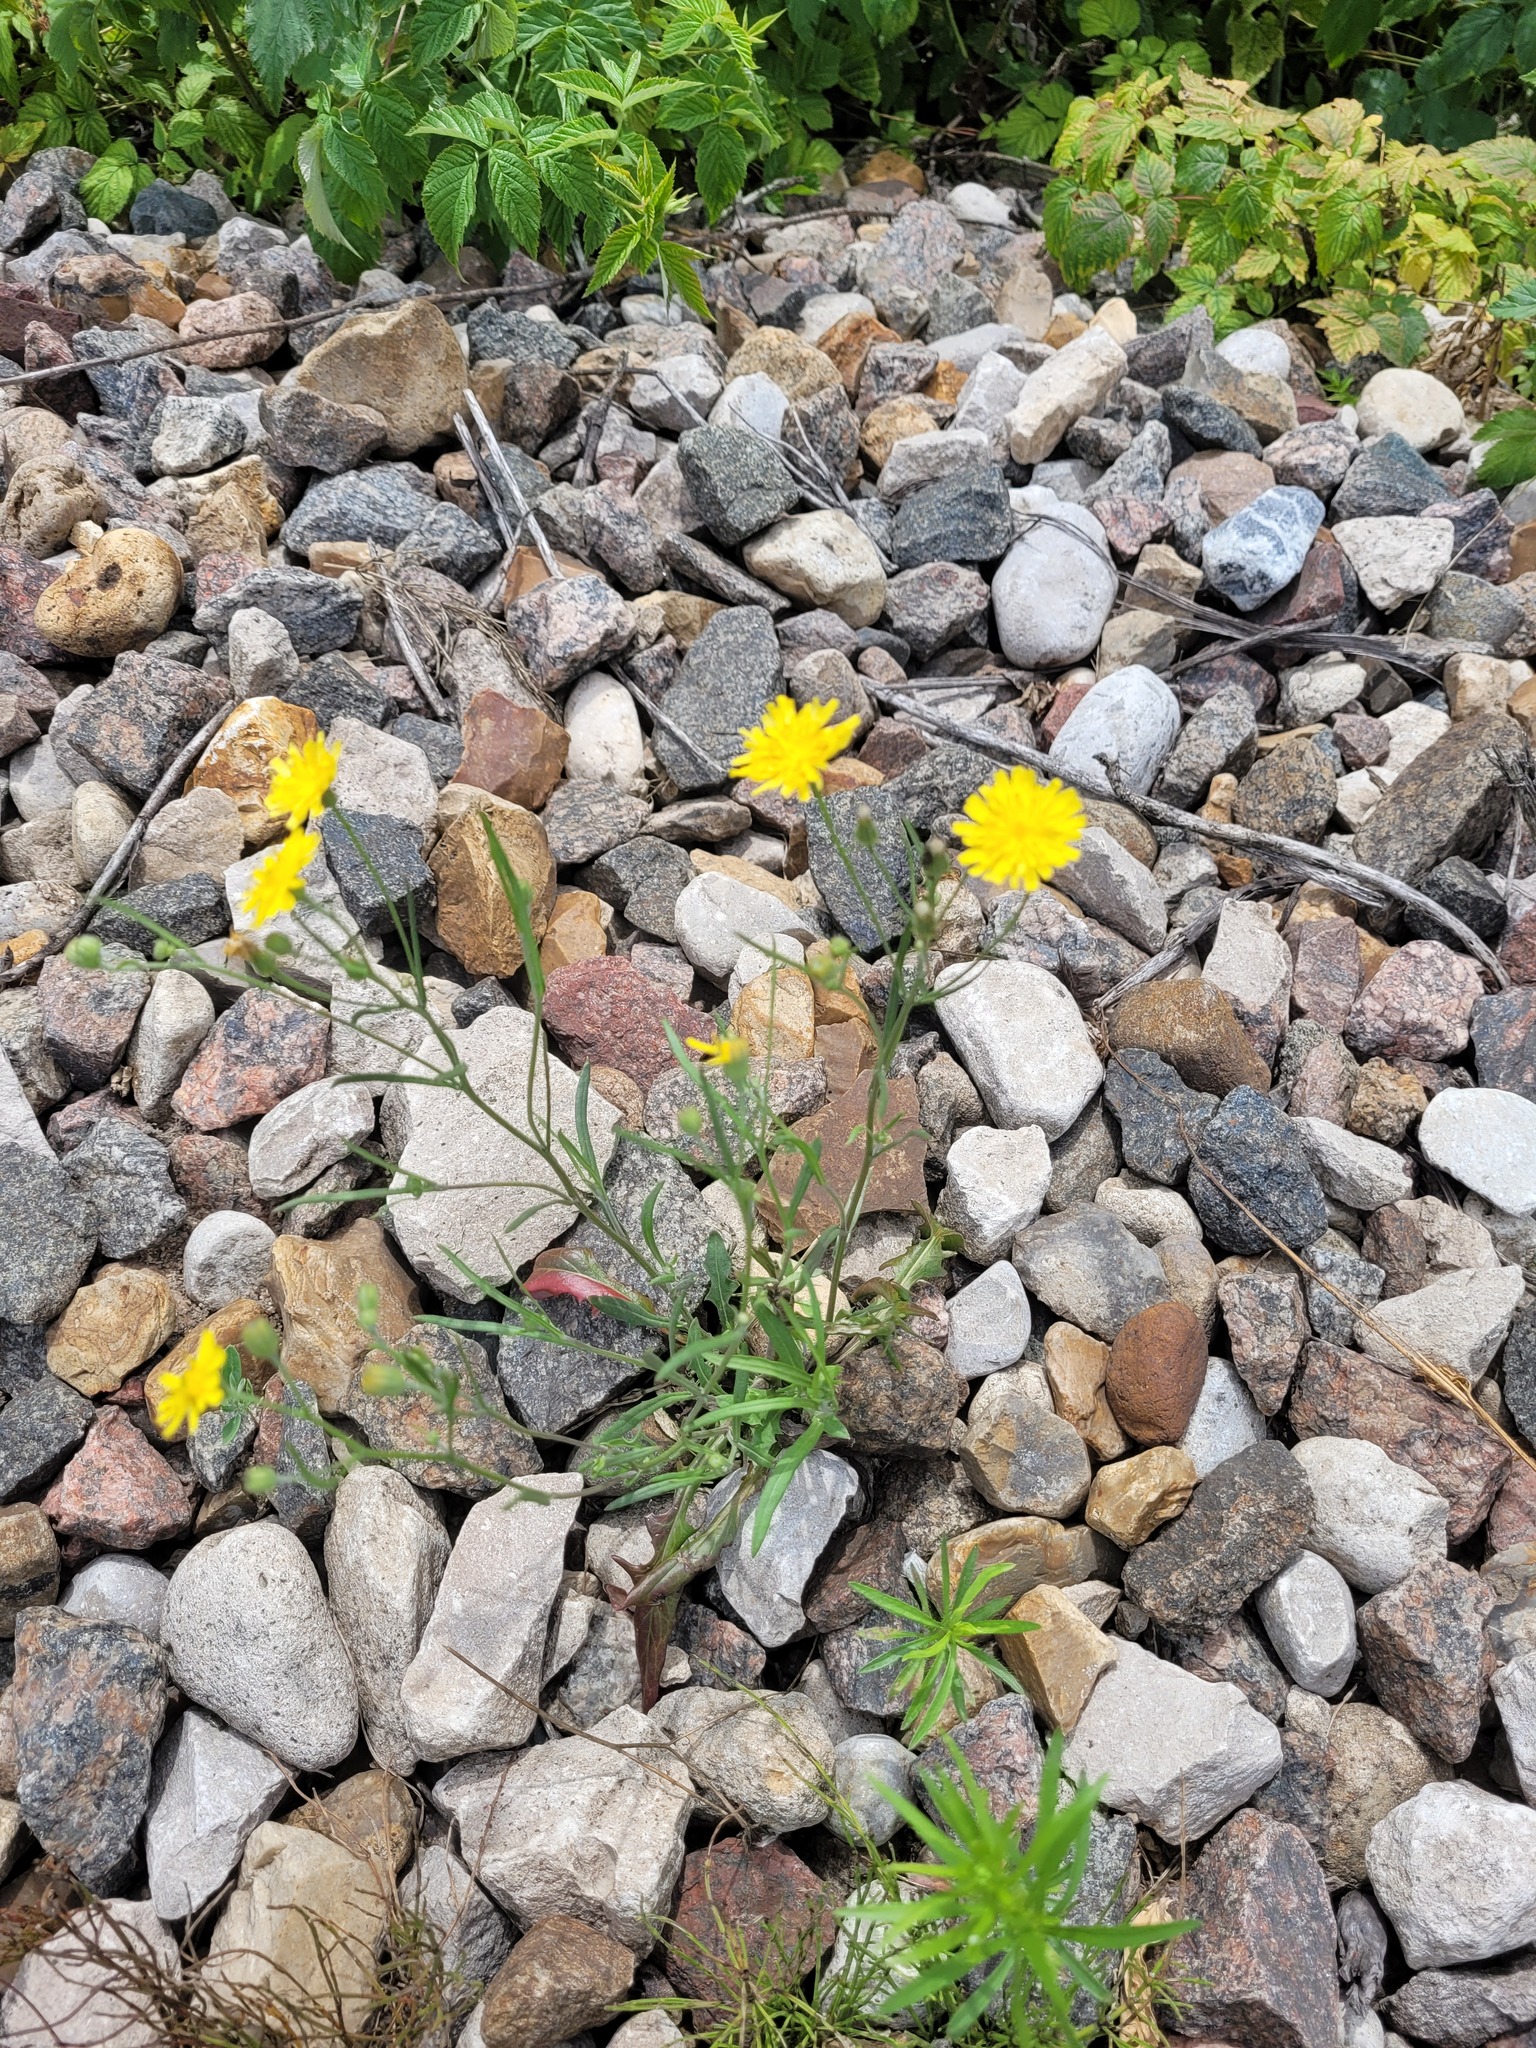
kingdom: Plantae
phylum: Tracheophyta
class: Magnoliopsida
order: Asterales
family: Asteraceae
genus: Crepis
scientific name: Crepis tectorum
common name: Narrow-leaved hawk's-beard
